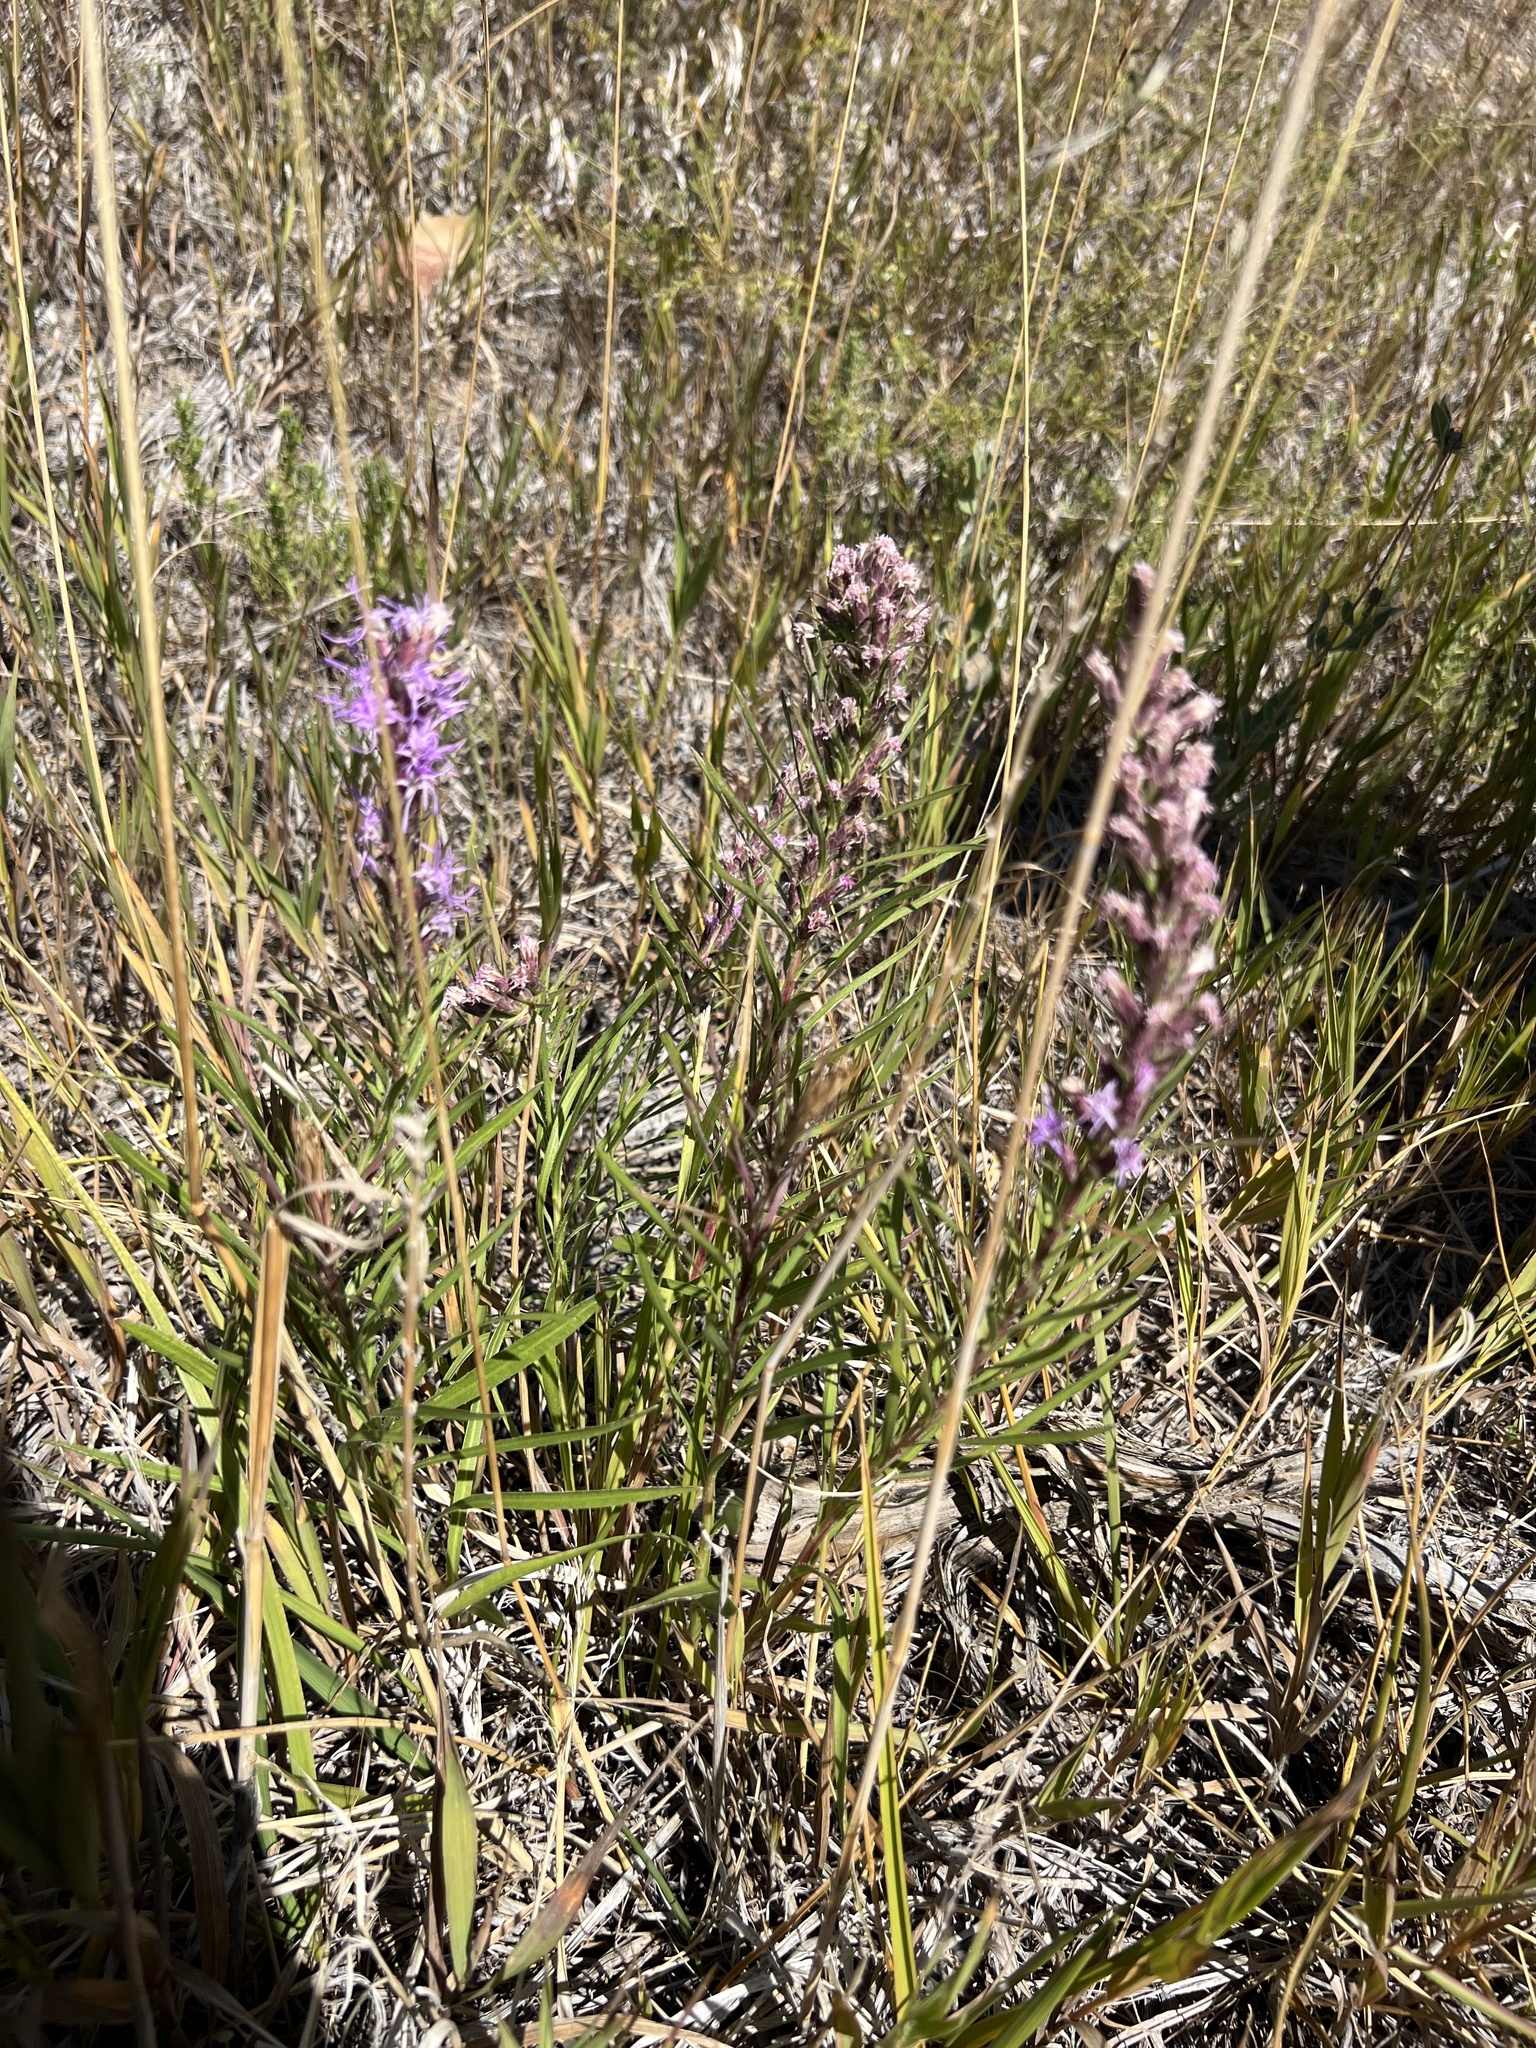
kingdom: Plantae
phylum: Tracheophyta
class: Magnoliopsida
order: Asterales
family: Asteraceae
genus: Liatris
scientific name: Liatris punctata
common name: Dotted gayfeather
